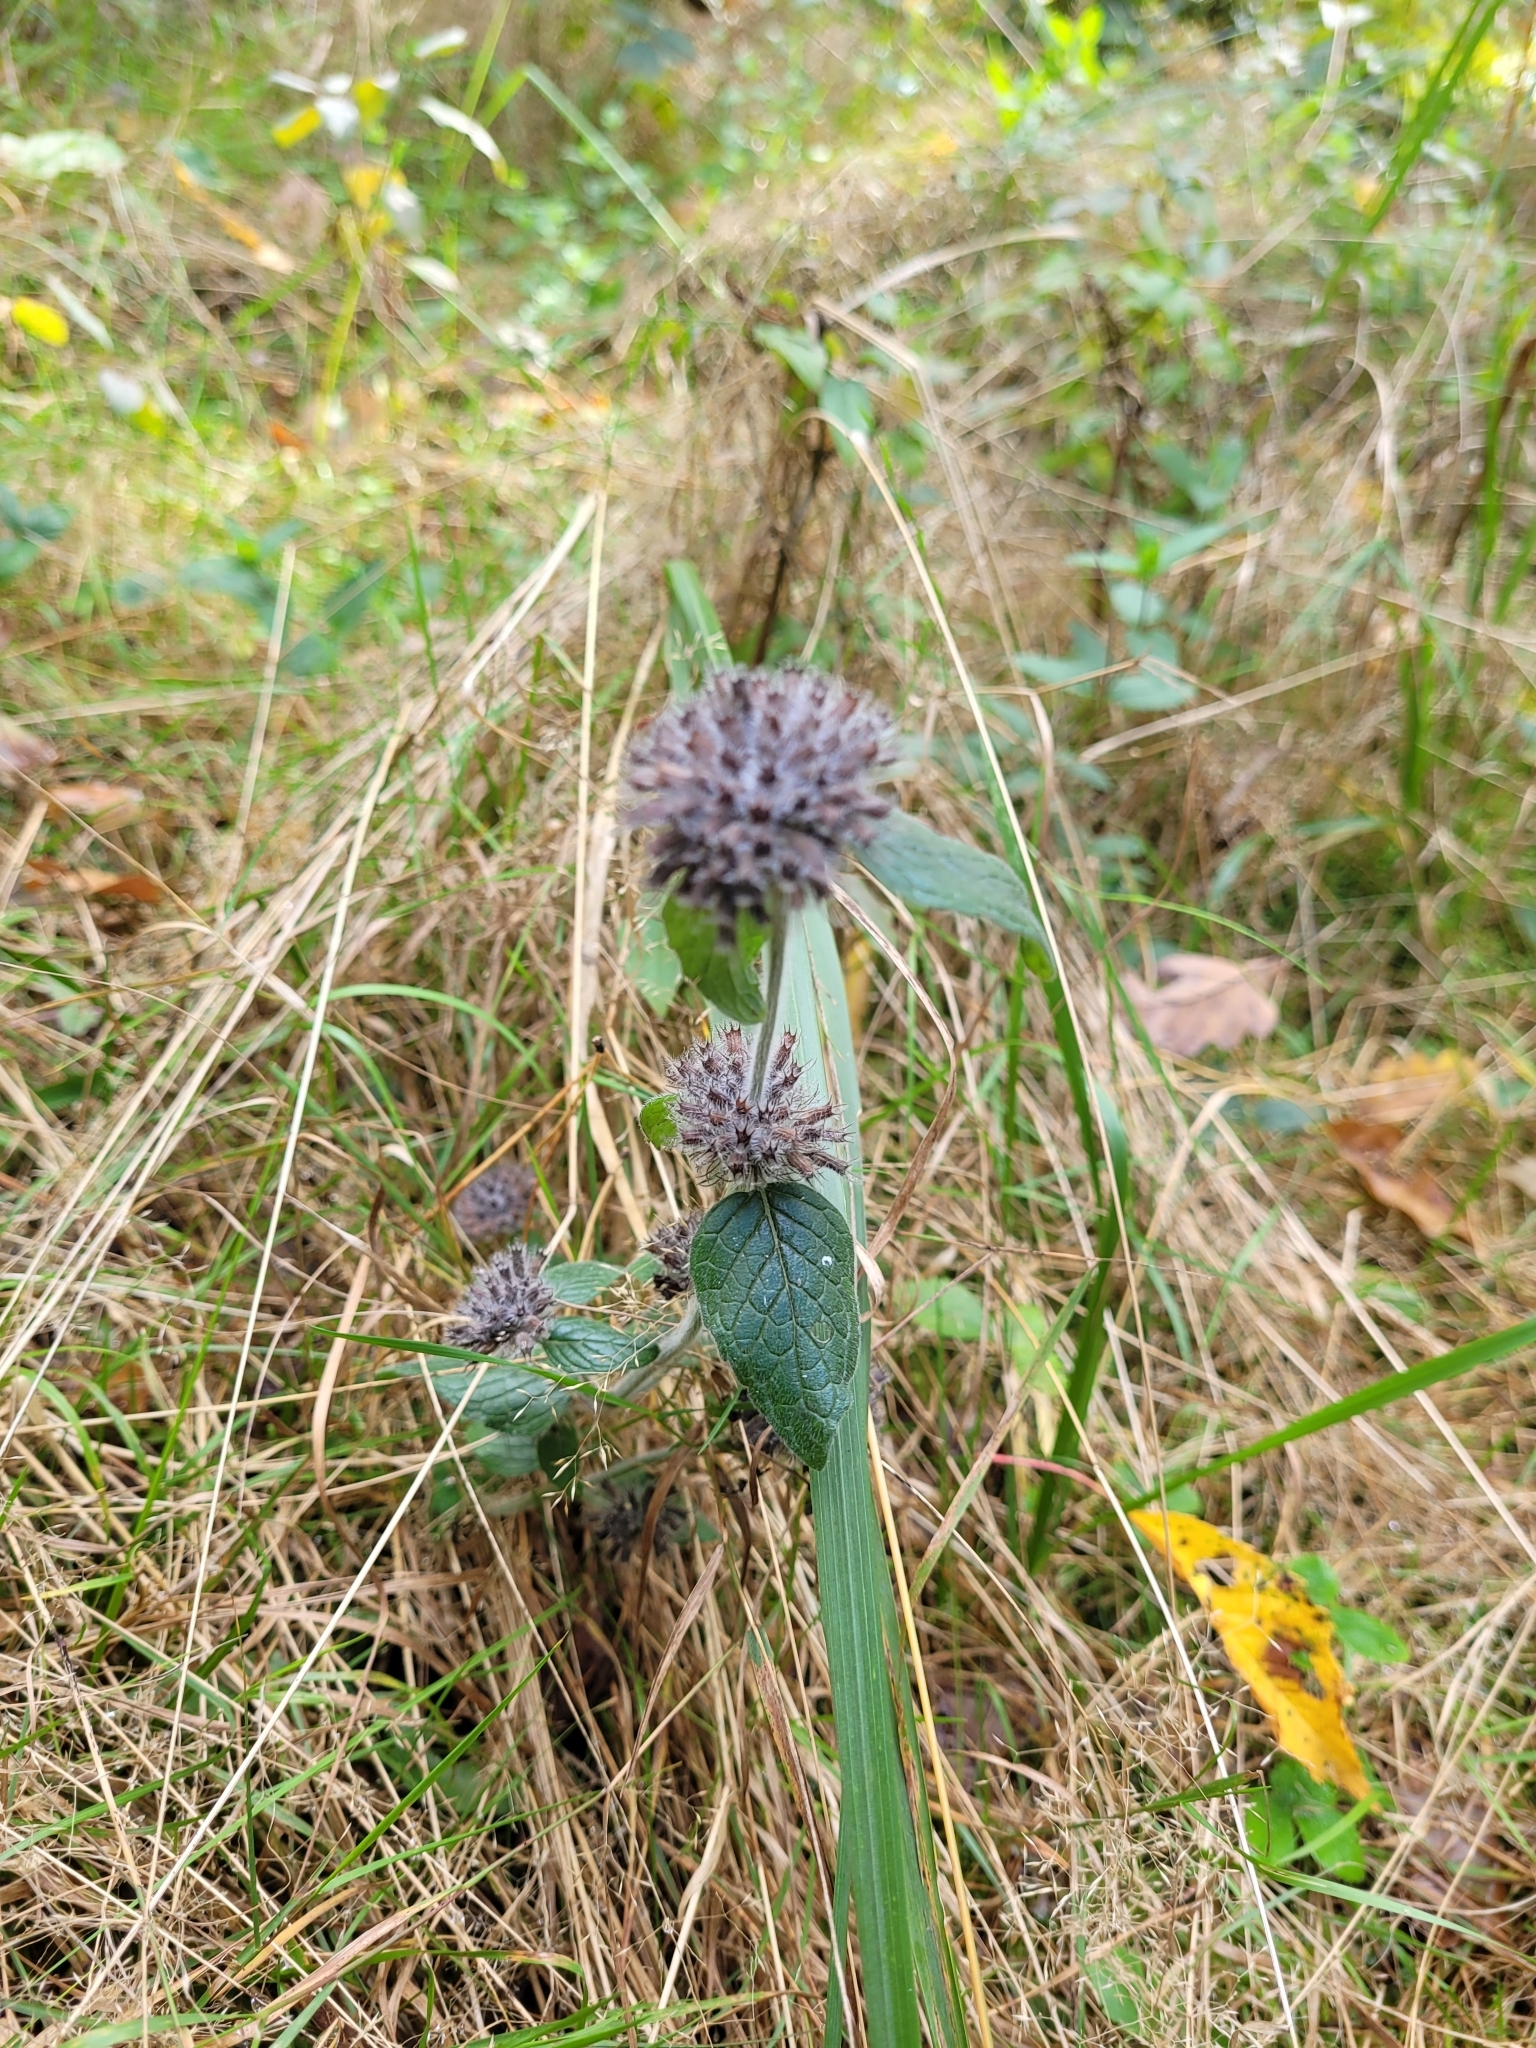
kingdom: Plantae
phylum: Tracheophyta
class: Magnoliopsida
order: Lamiales
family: Lamiaceae
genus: Clinopodium
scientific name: Clinopodium vulgare
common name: Wild basil
